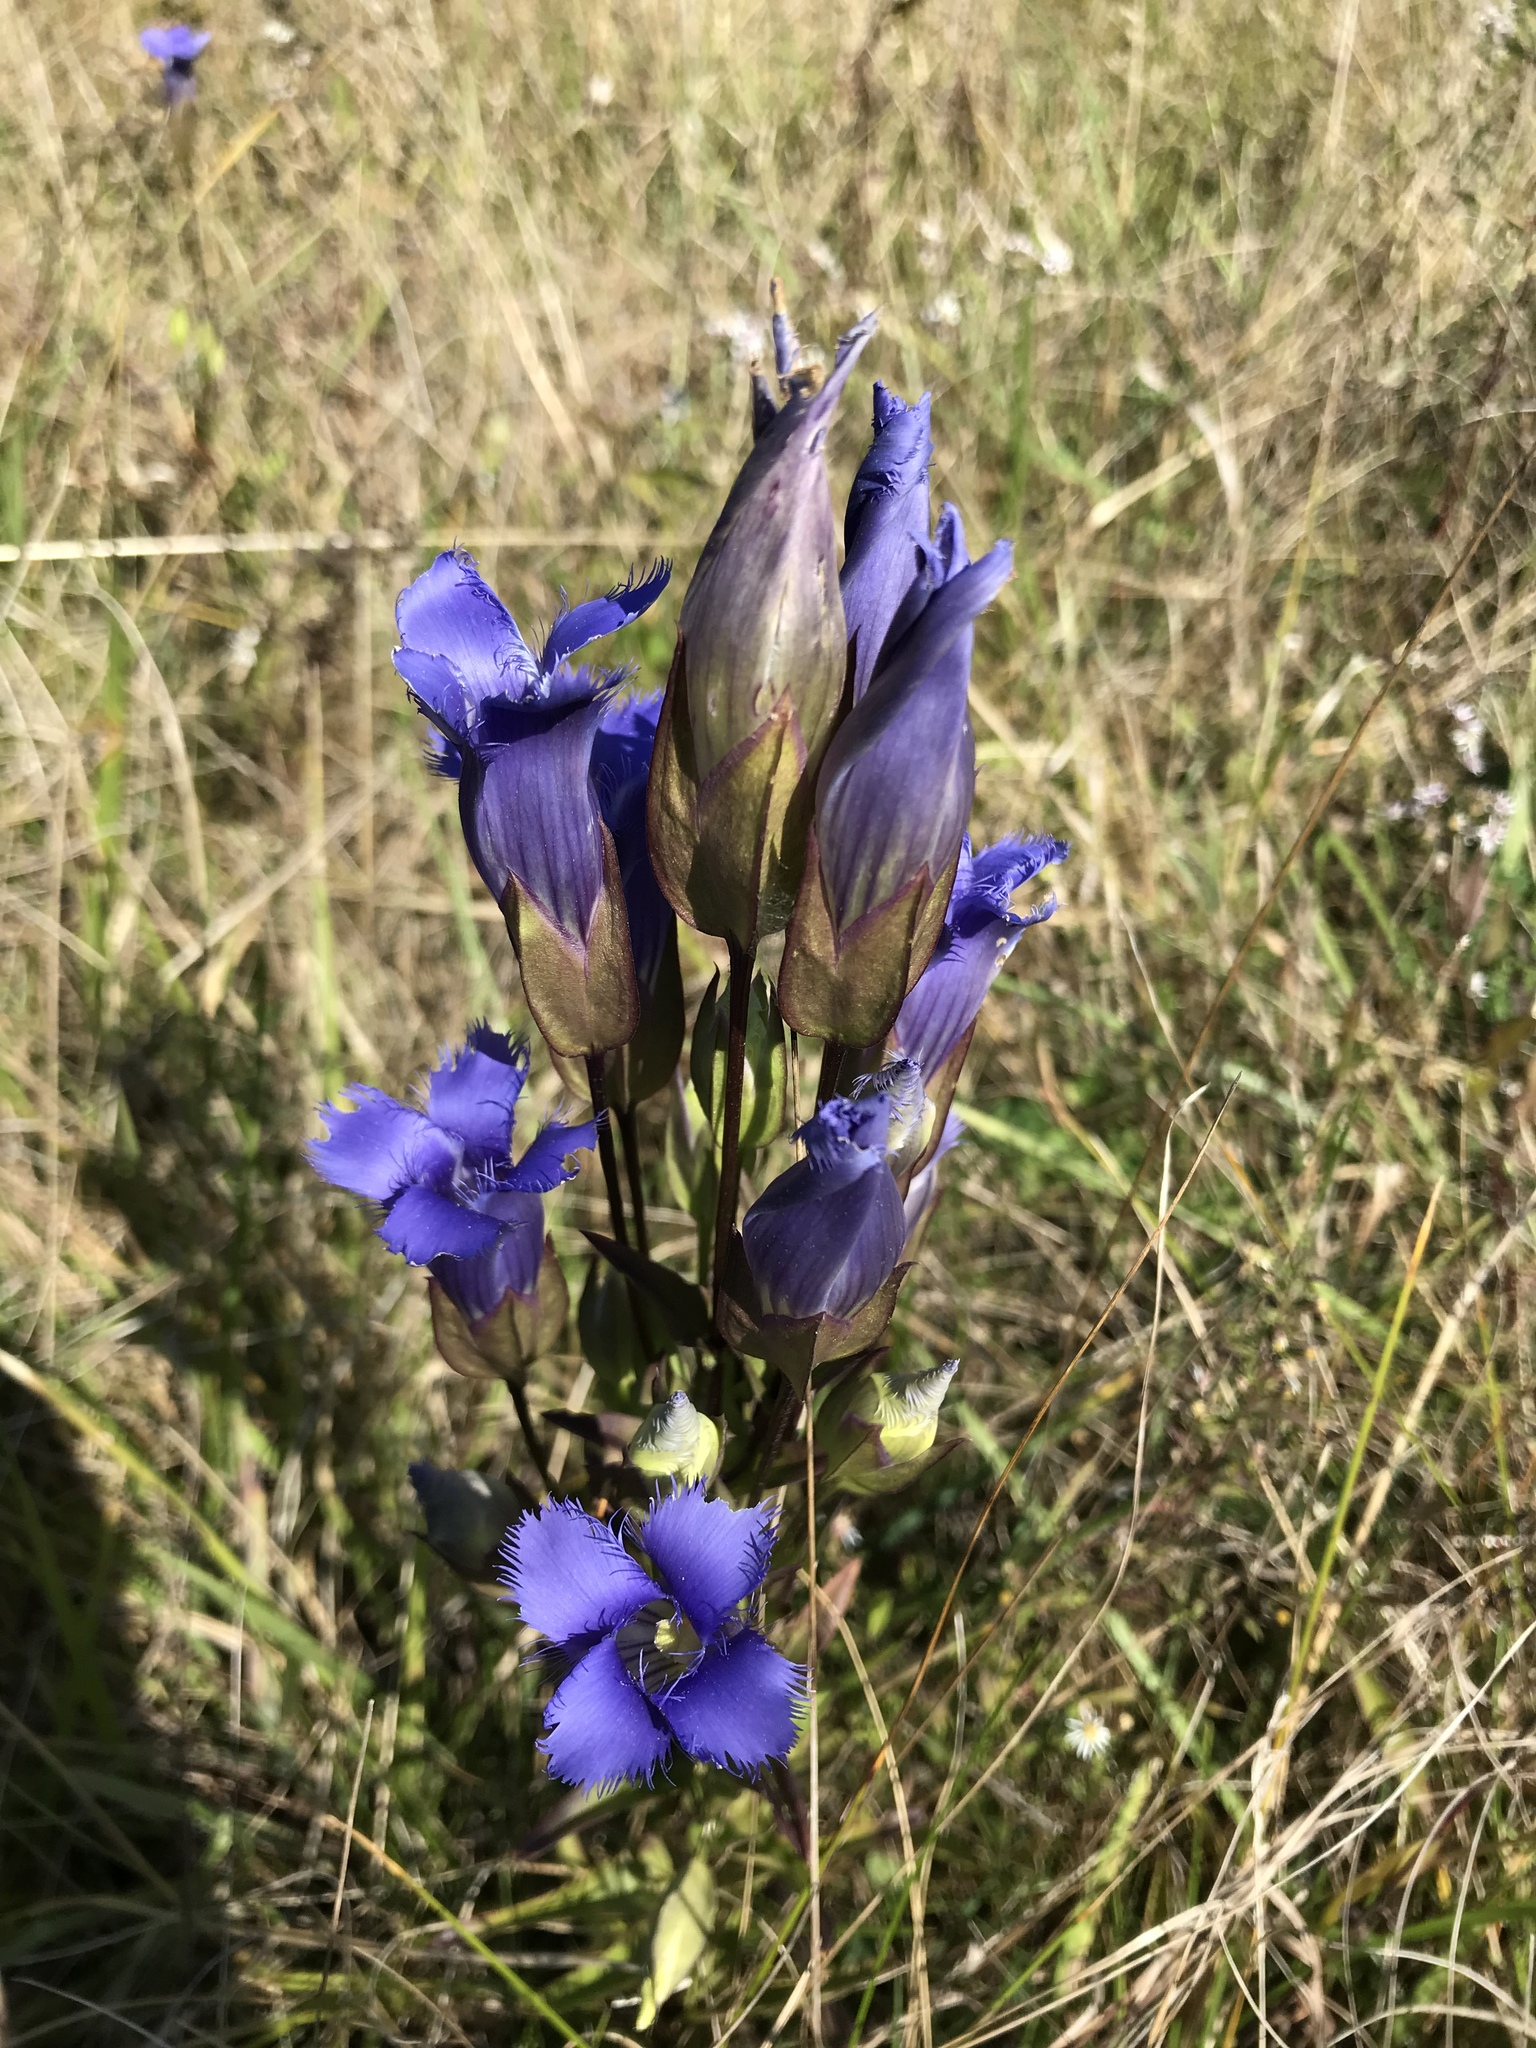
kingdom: Plantae
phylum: Tracheophyta
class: Magnoliopsida
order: Gentianales
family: Gentianaceae
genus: Gentianopsis
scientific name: Gentianopsis crinita
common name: Fringed-gentian
